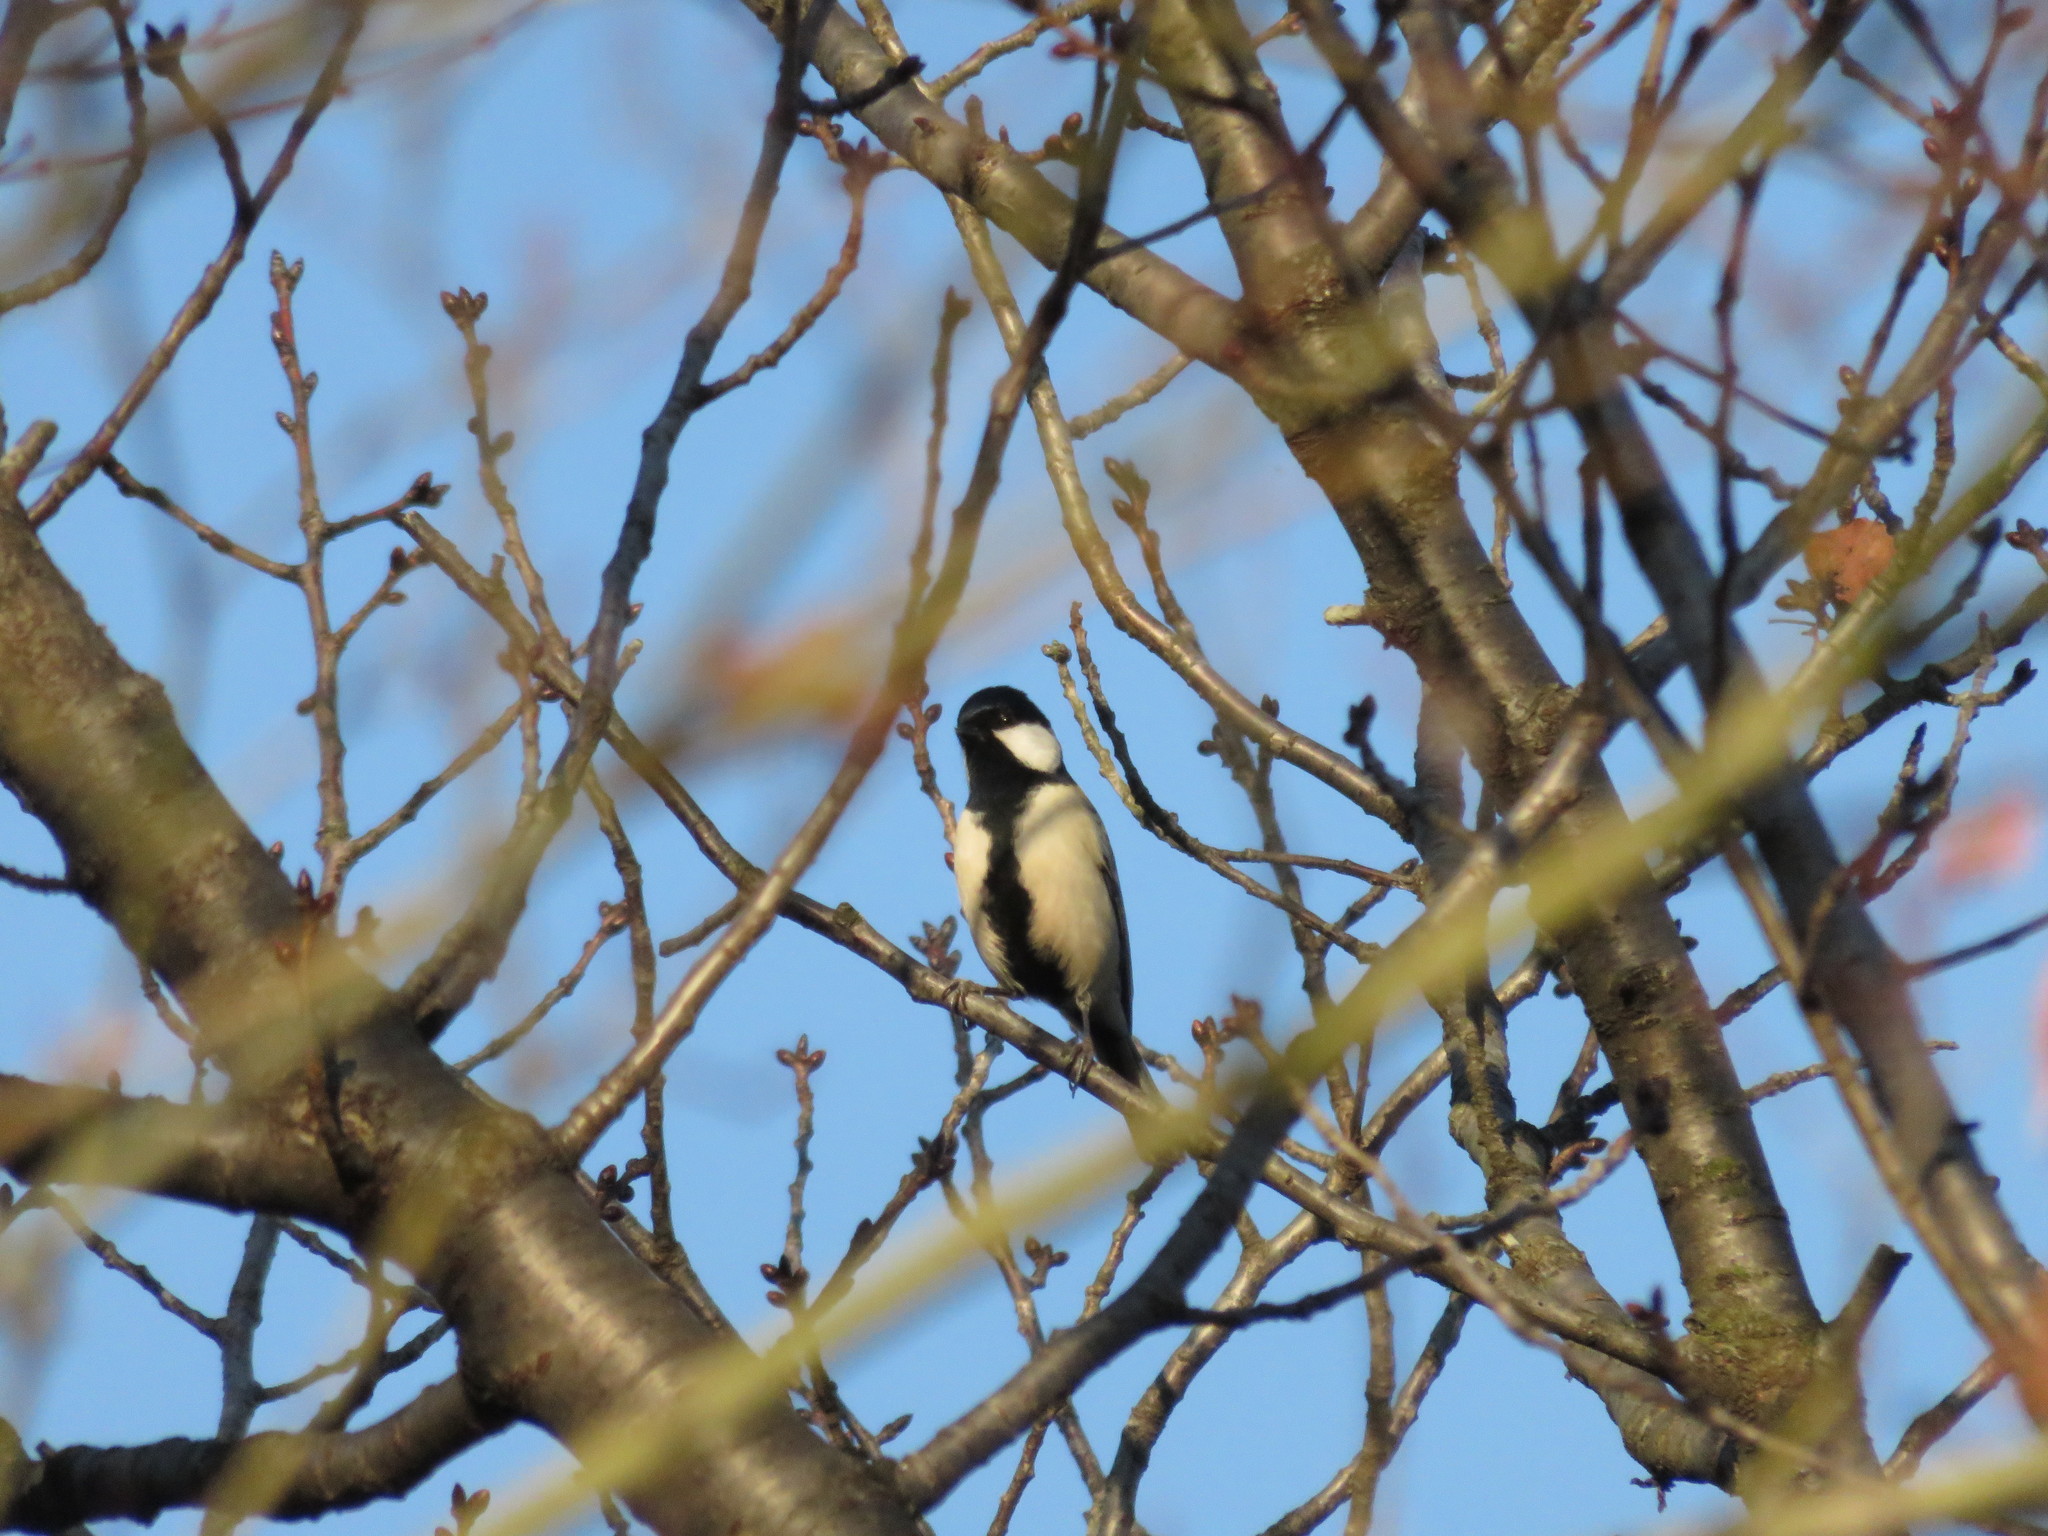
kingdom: Animalia
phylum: Chordata
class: Aves
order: Passeriformes
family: Paridae
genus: Parus
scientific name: Parus minor
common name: Japanese tit
